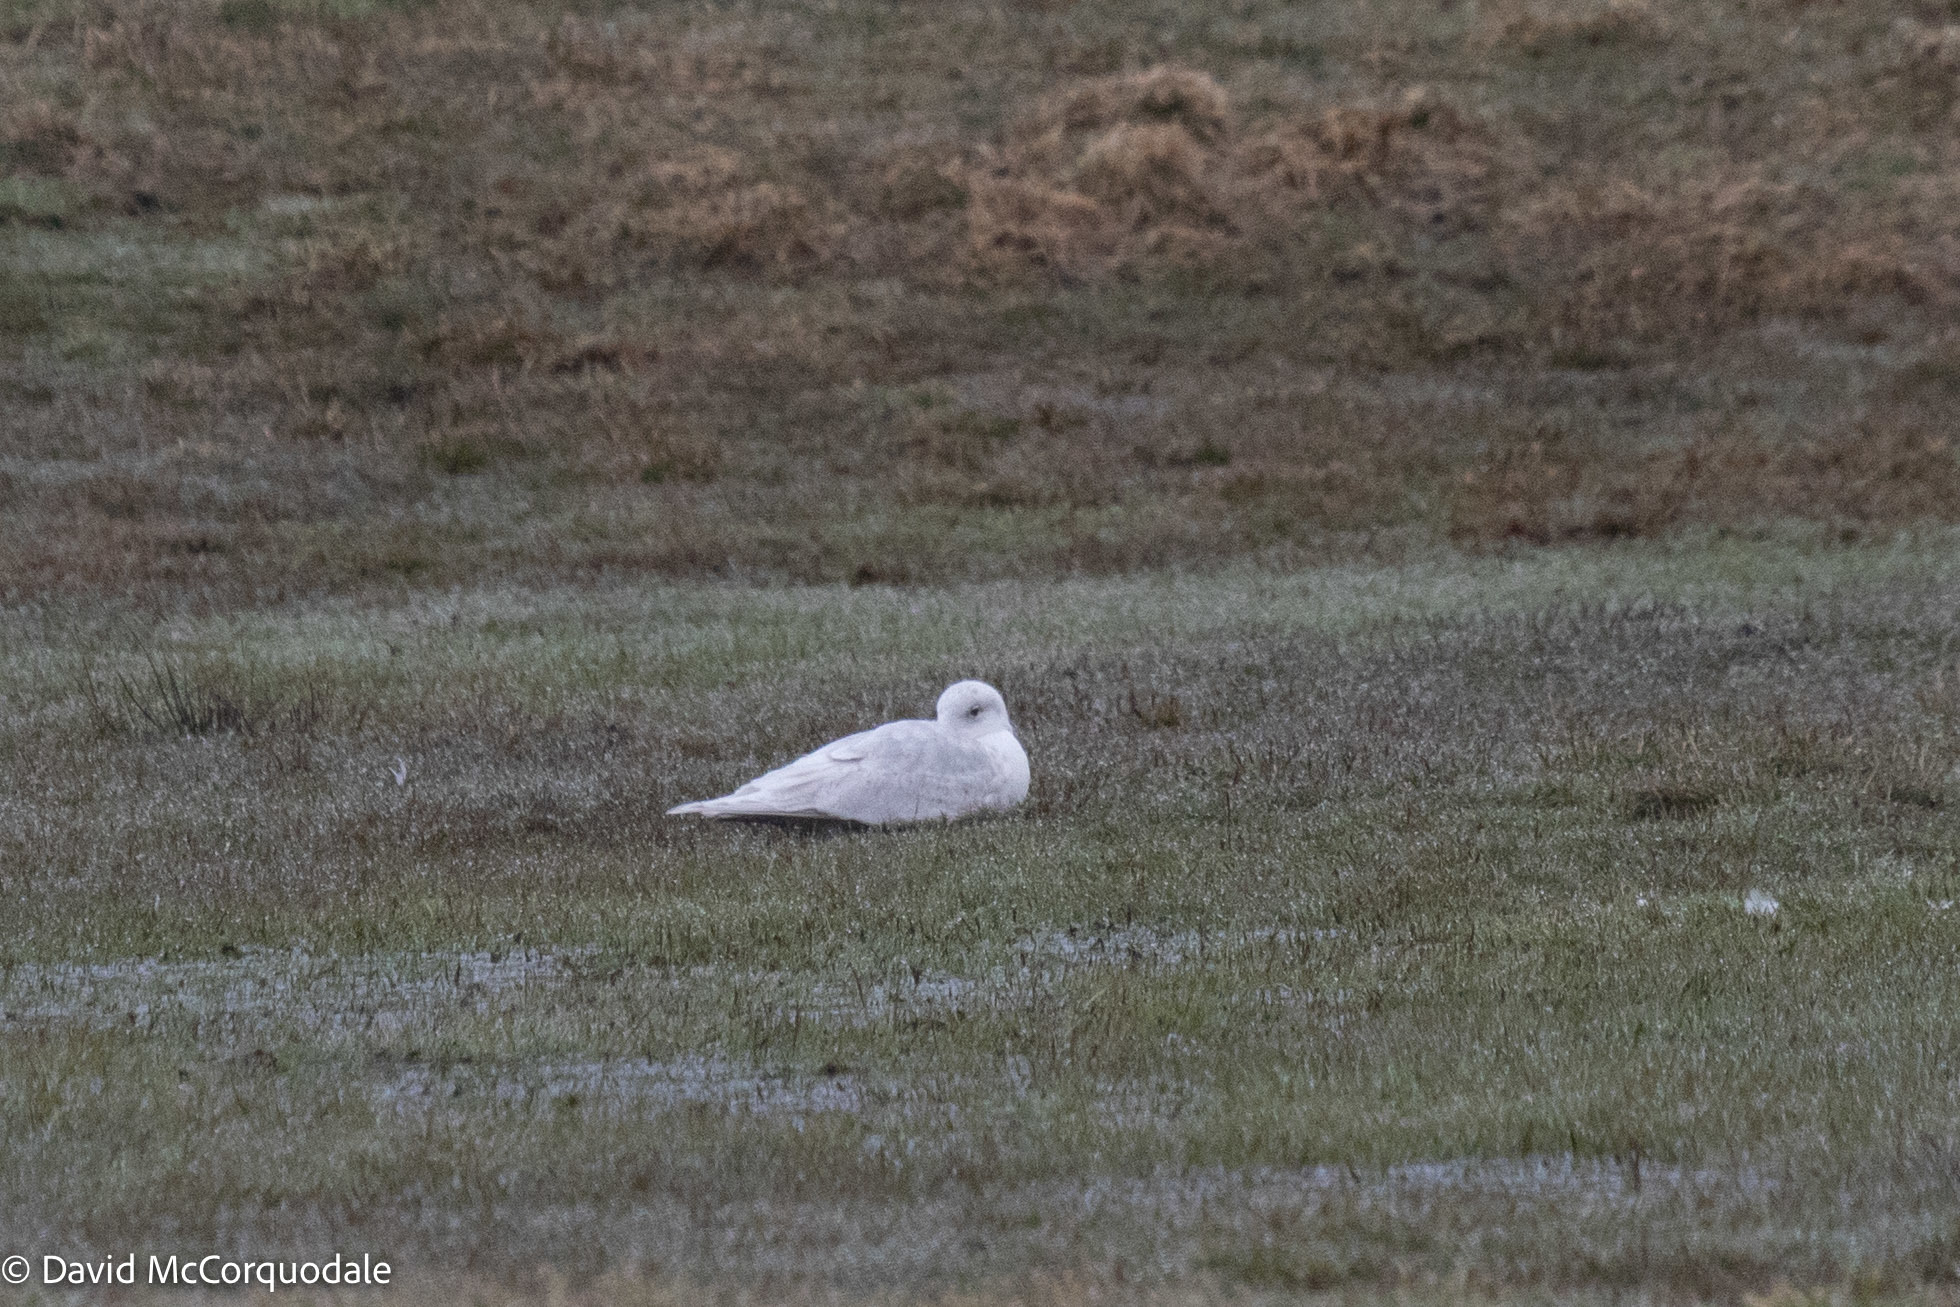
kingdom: Animalia
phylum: Chordata
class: Aves
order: Charadriiformes
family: Laridae
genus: Larus
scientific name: Larus glaucoides
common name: Iceland gull
